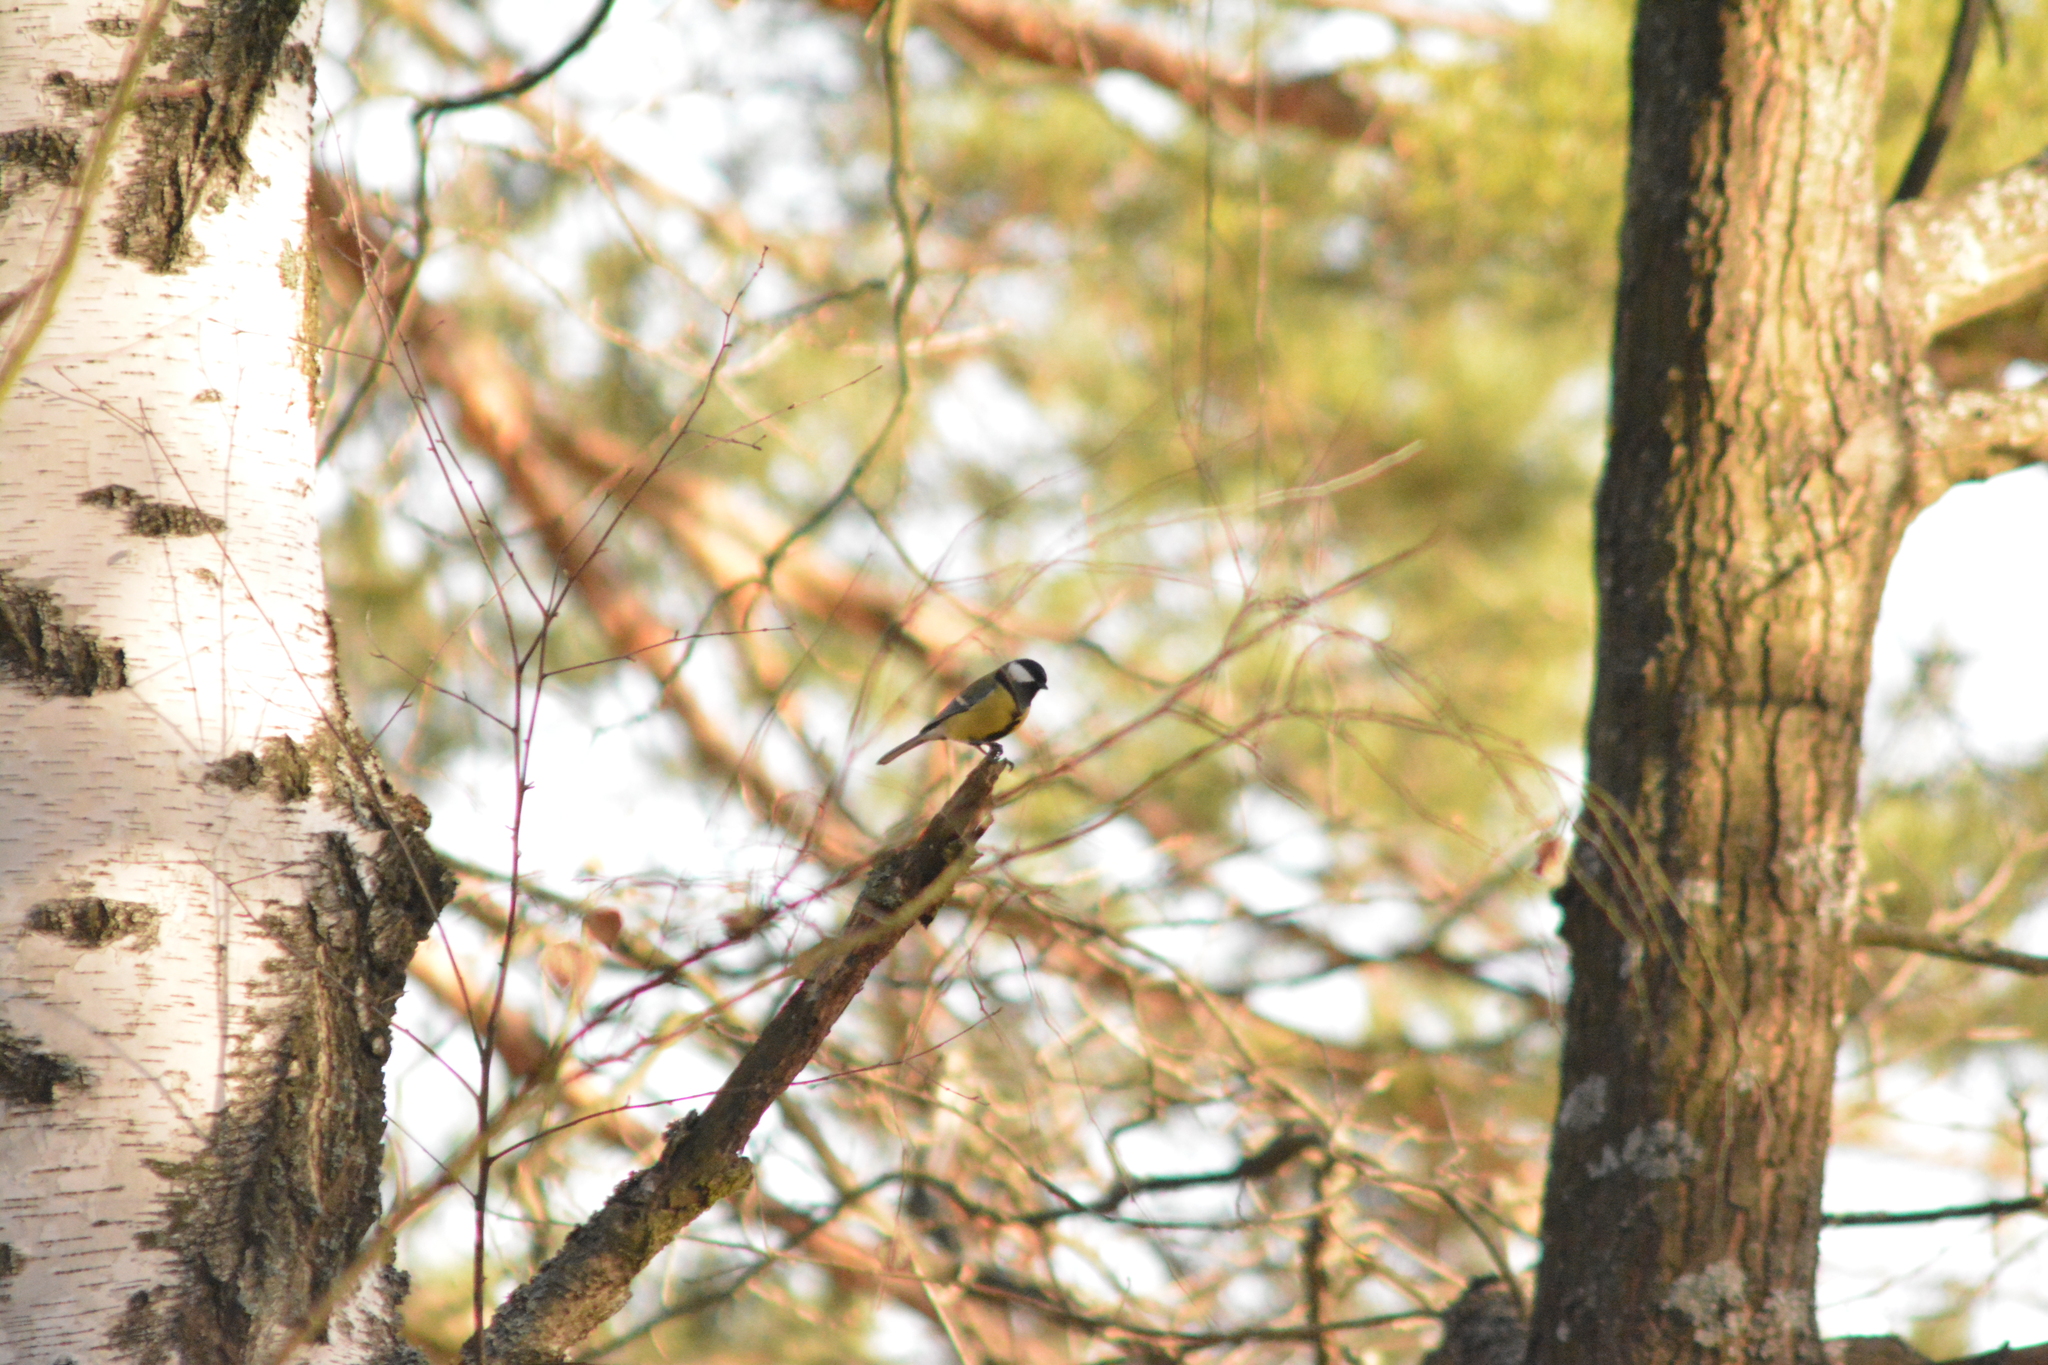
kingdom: Animalia
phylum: Chordata
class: Aves
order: Passeriformes
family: Paridae
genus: Parus
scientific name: Parus major
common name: Great tit
